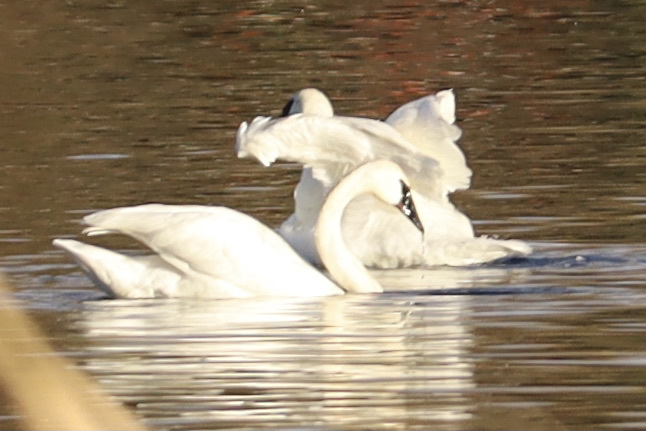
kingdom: Animalia
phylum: Chordata
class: Aves
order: Anseriformes
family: Anatidae
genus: Cygnus
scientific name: Cygnus buccinator
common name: Trumpeter swan
